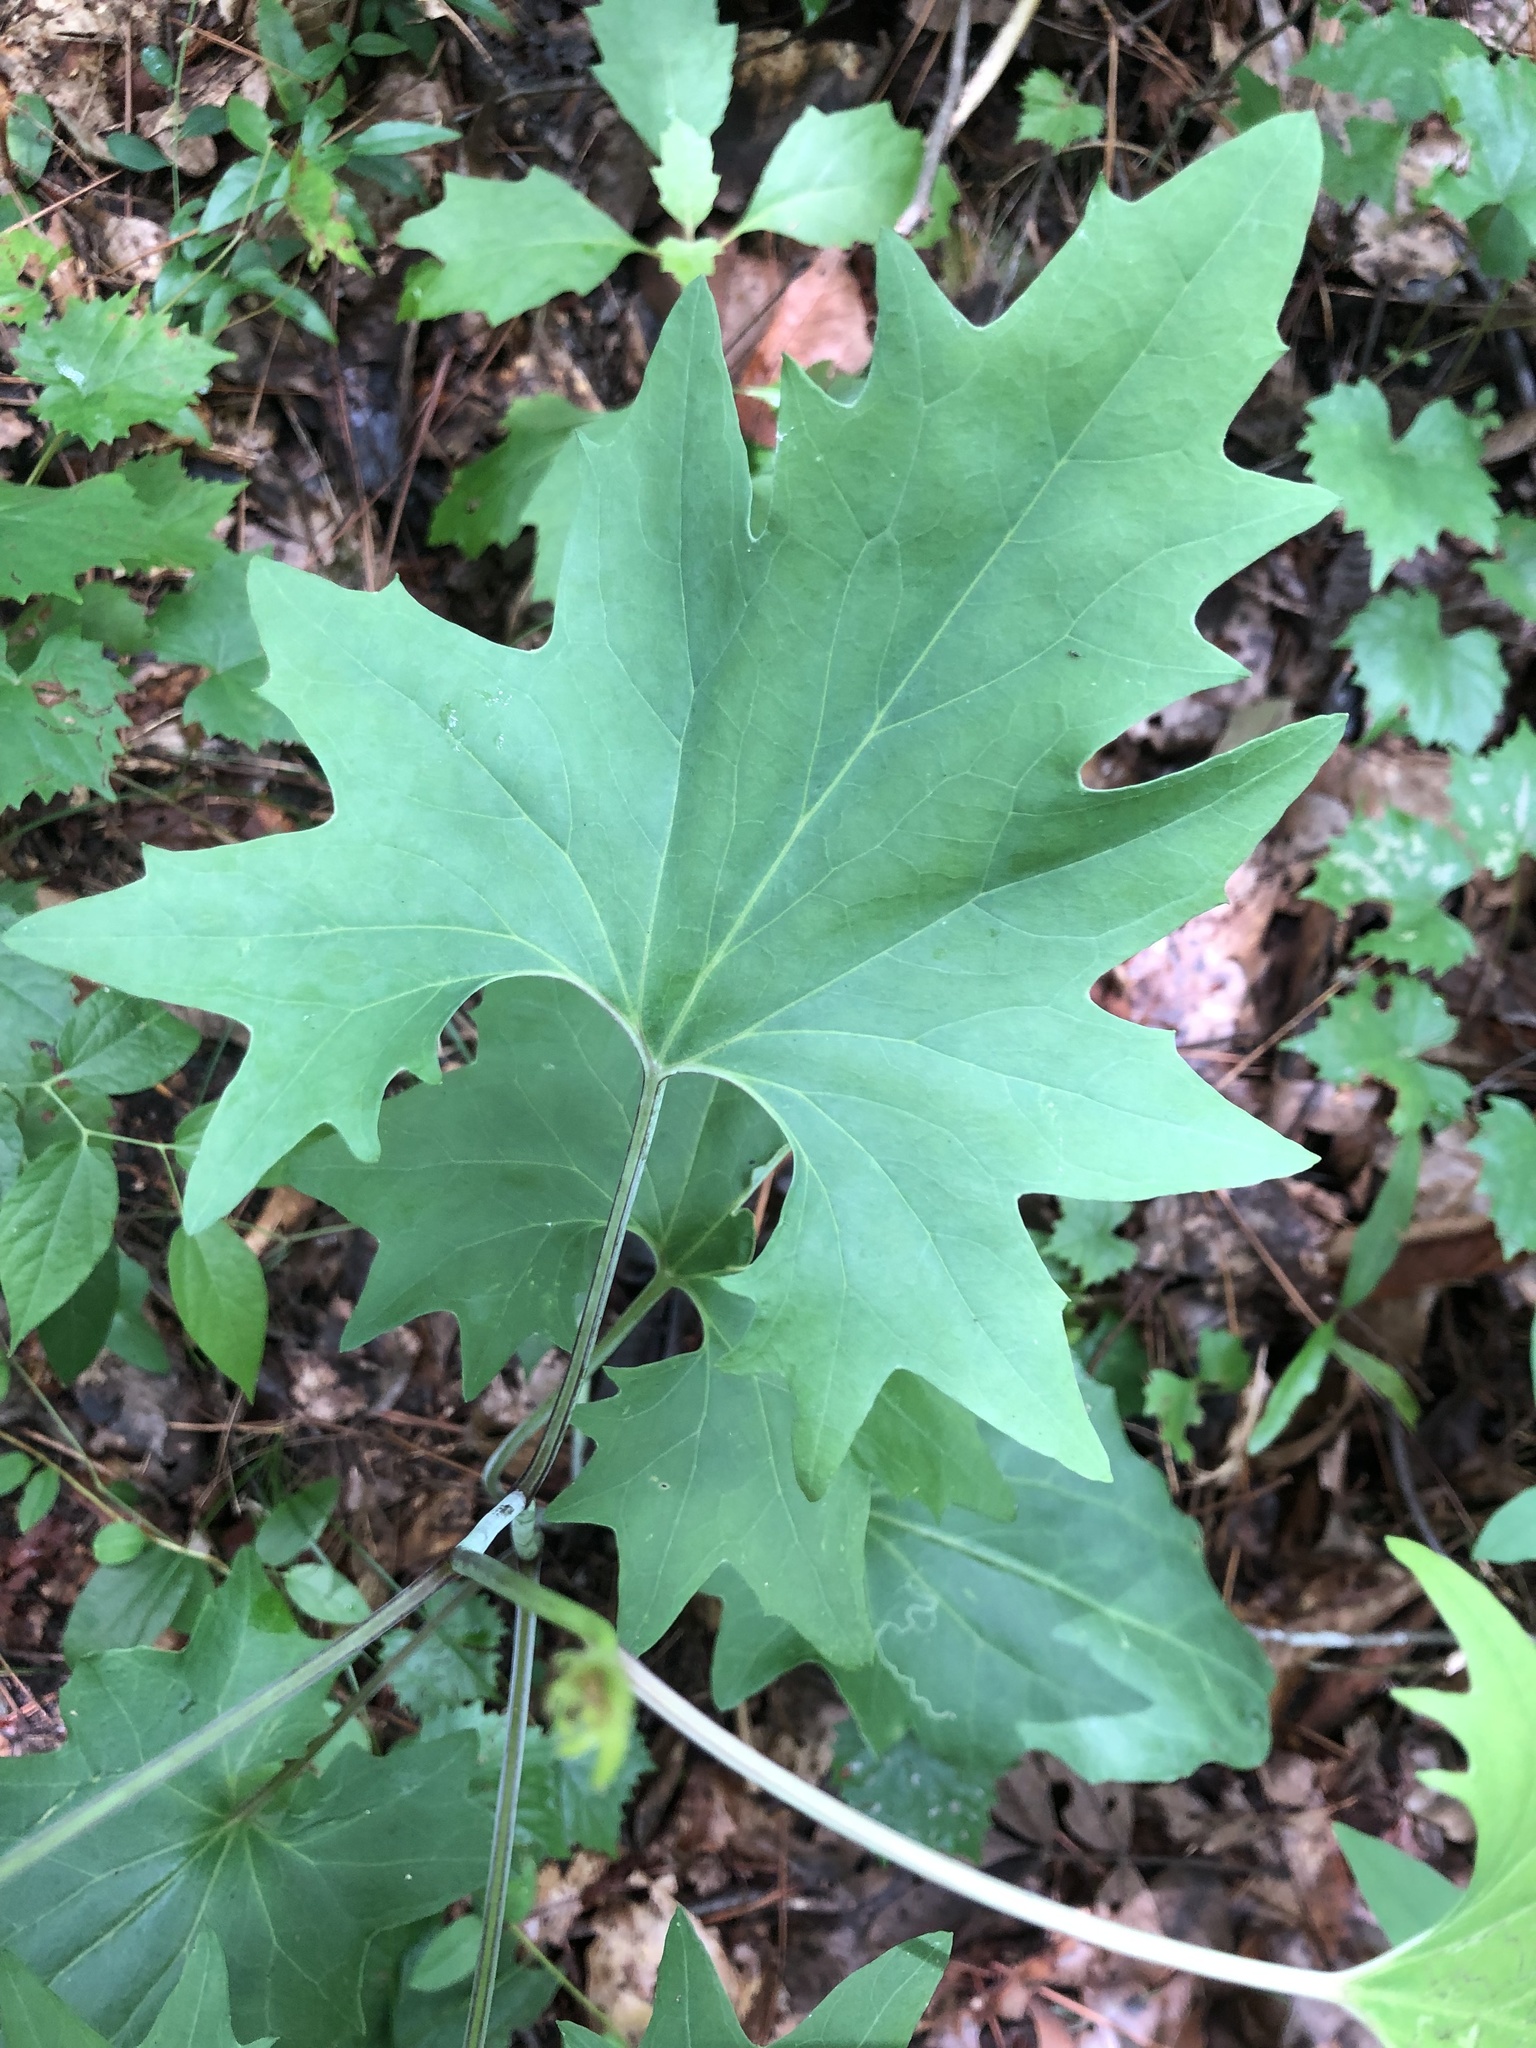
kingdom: Plantae
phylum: Tracheophyta
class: Magnoliopsida
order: Asterales
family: Asteraceae
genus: Arnoglossum
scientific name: Arnoglossum atriplicifolium
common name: Pale indian-plantain
